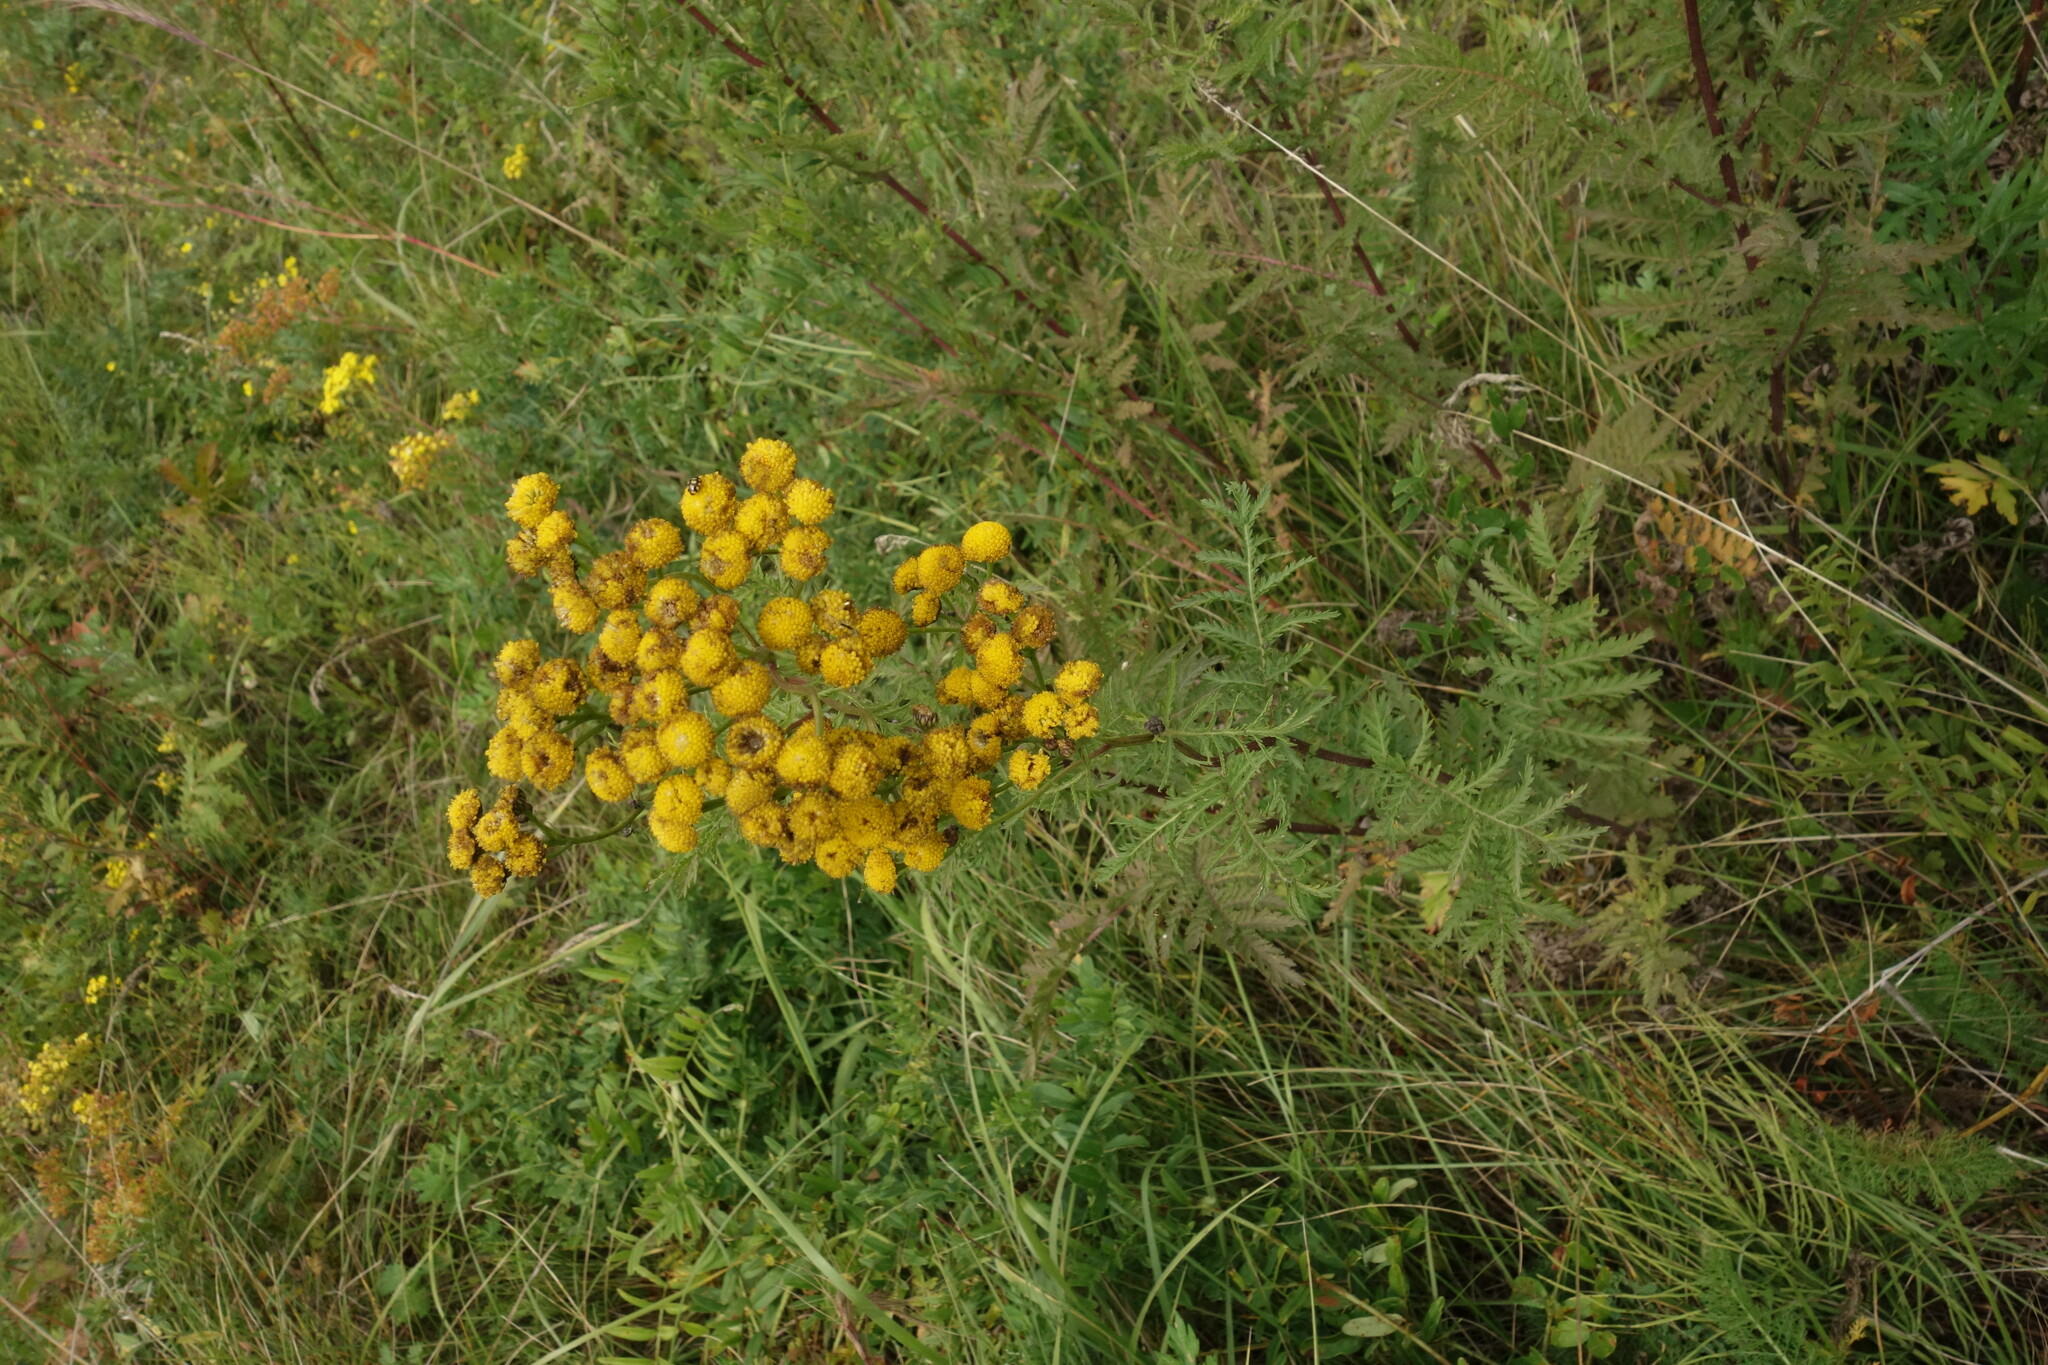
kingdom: Plantae
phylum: Tracheophyta
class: Magnoliopsida
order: Asterales
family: Asteraceae
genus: Tanacetum
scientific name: Tanacetum vulgare
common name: Common tansy
